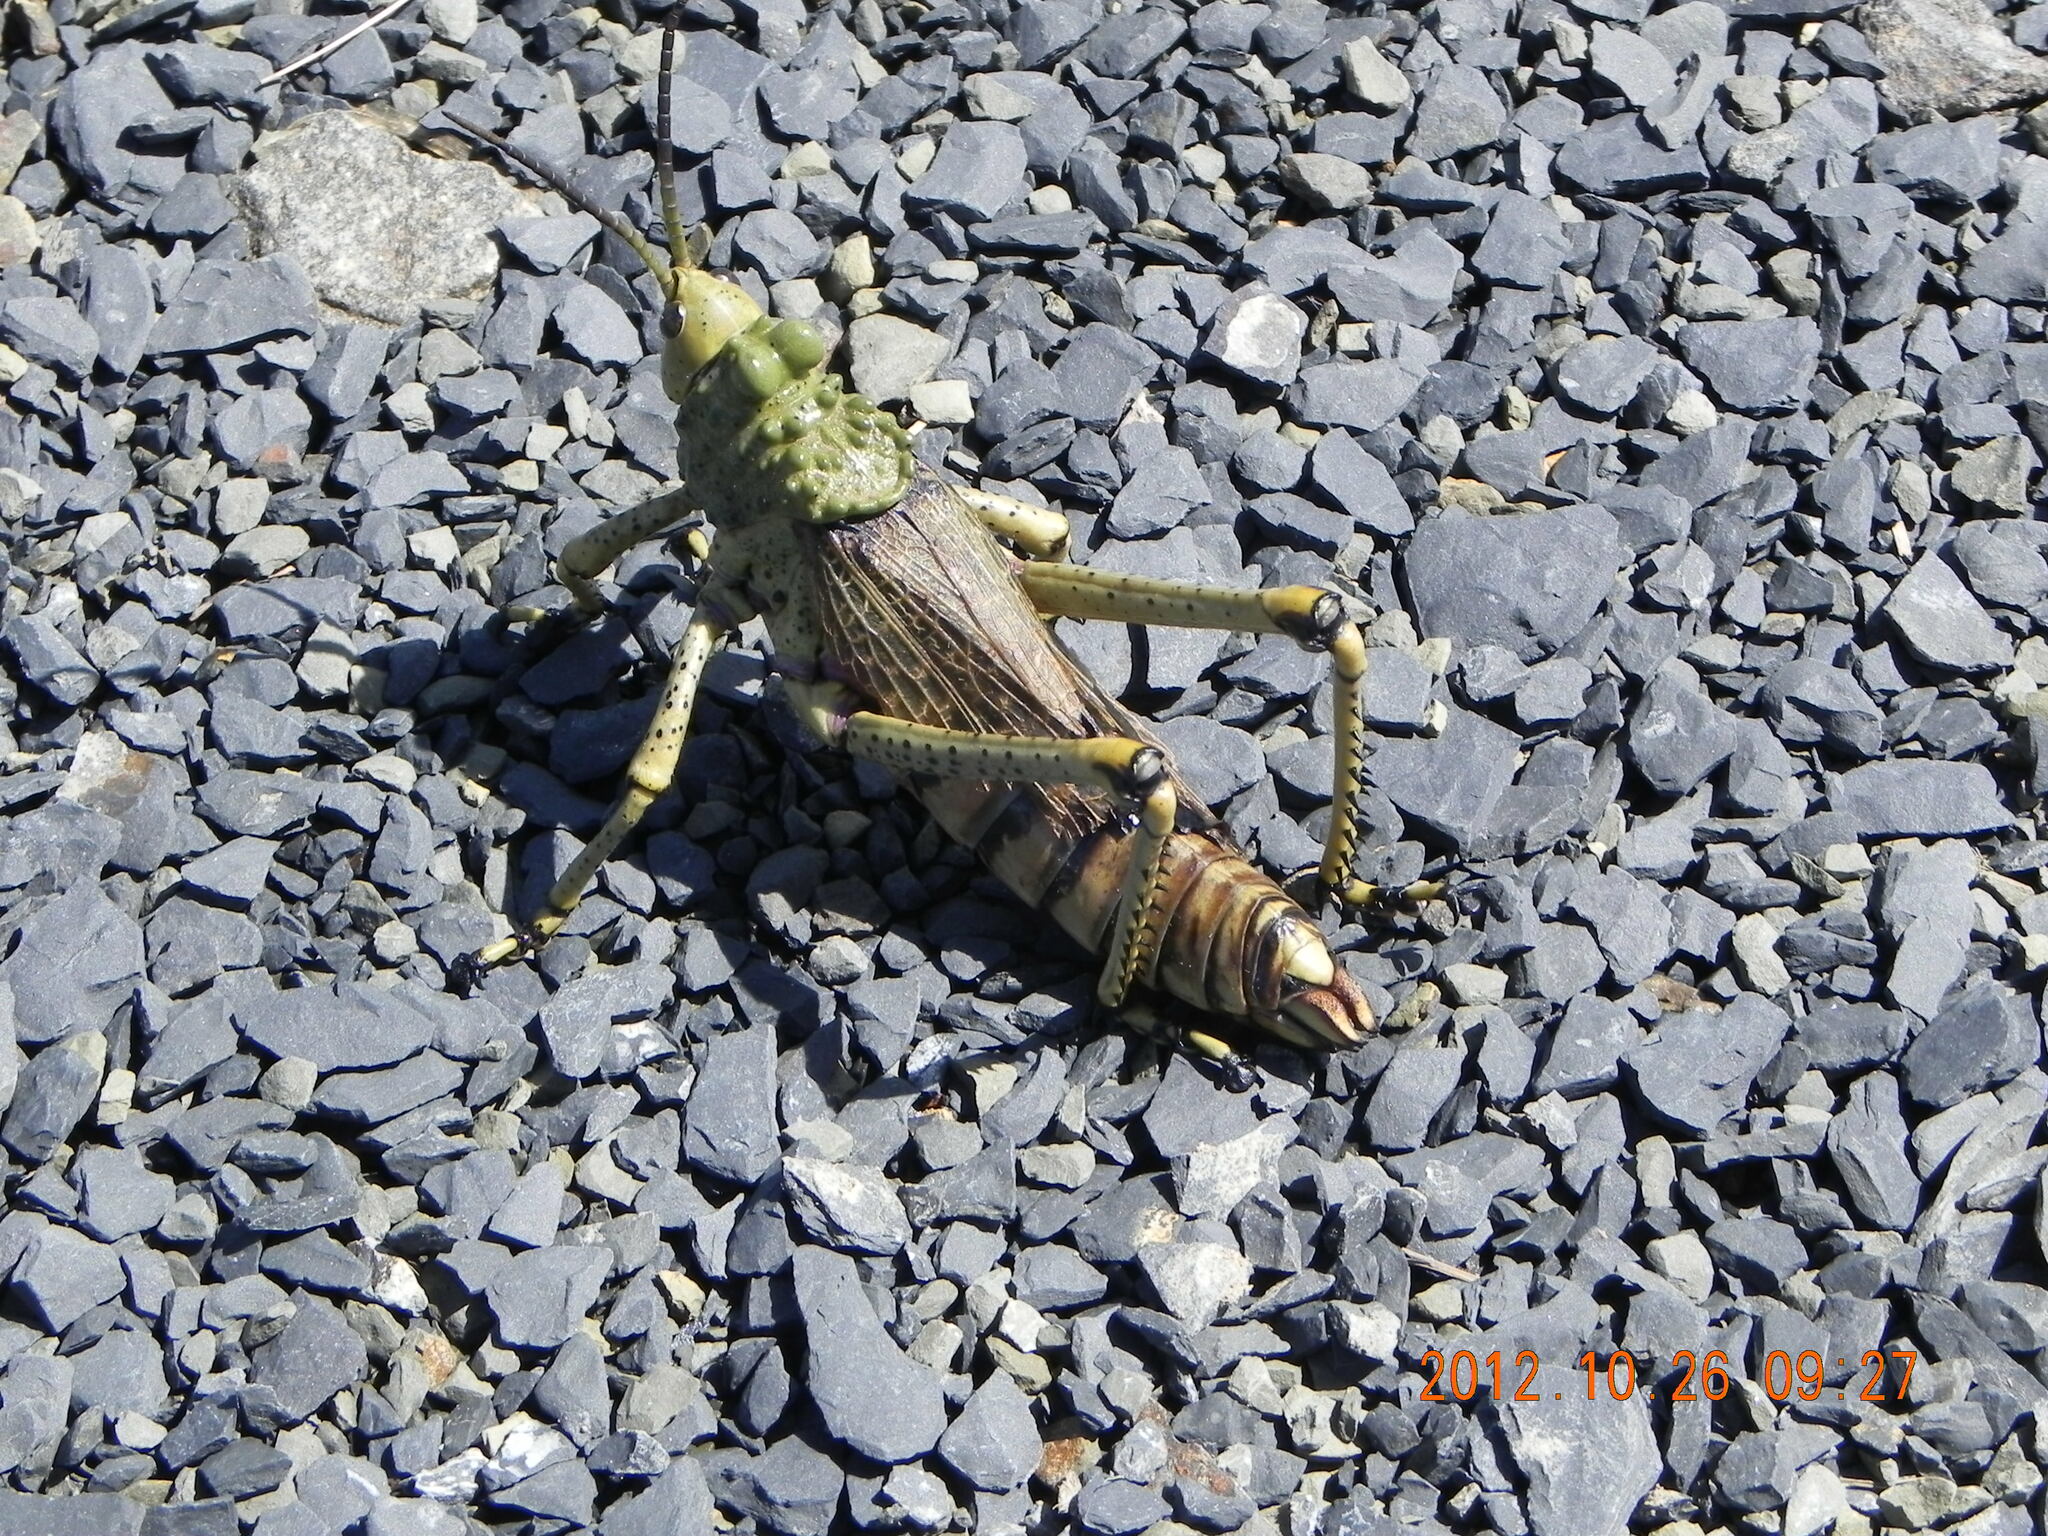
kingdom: Animalia
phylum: Arthropoda
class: Insecta
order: Orthoptera
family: Pyrgomorphidae
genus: Phymateus
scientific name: Phymateus leprosus
